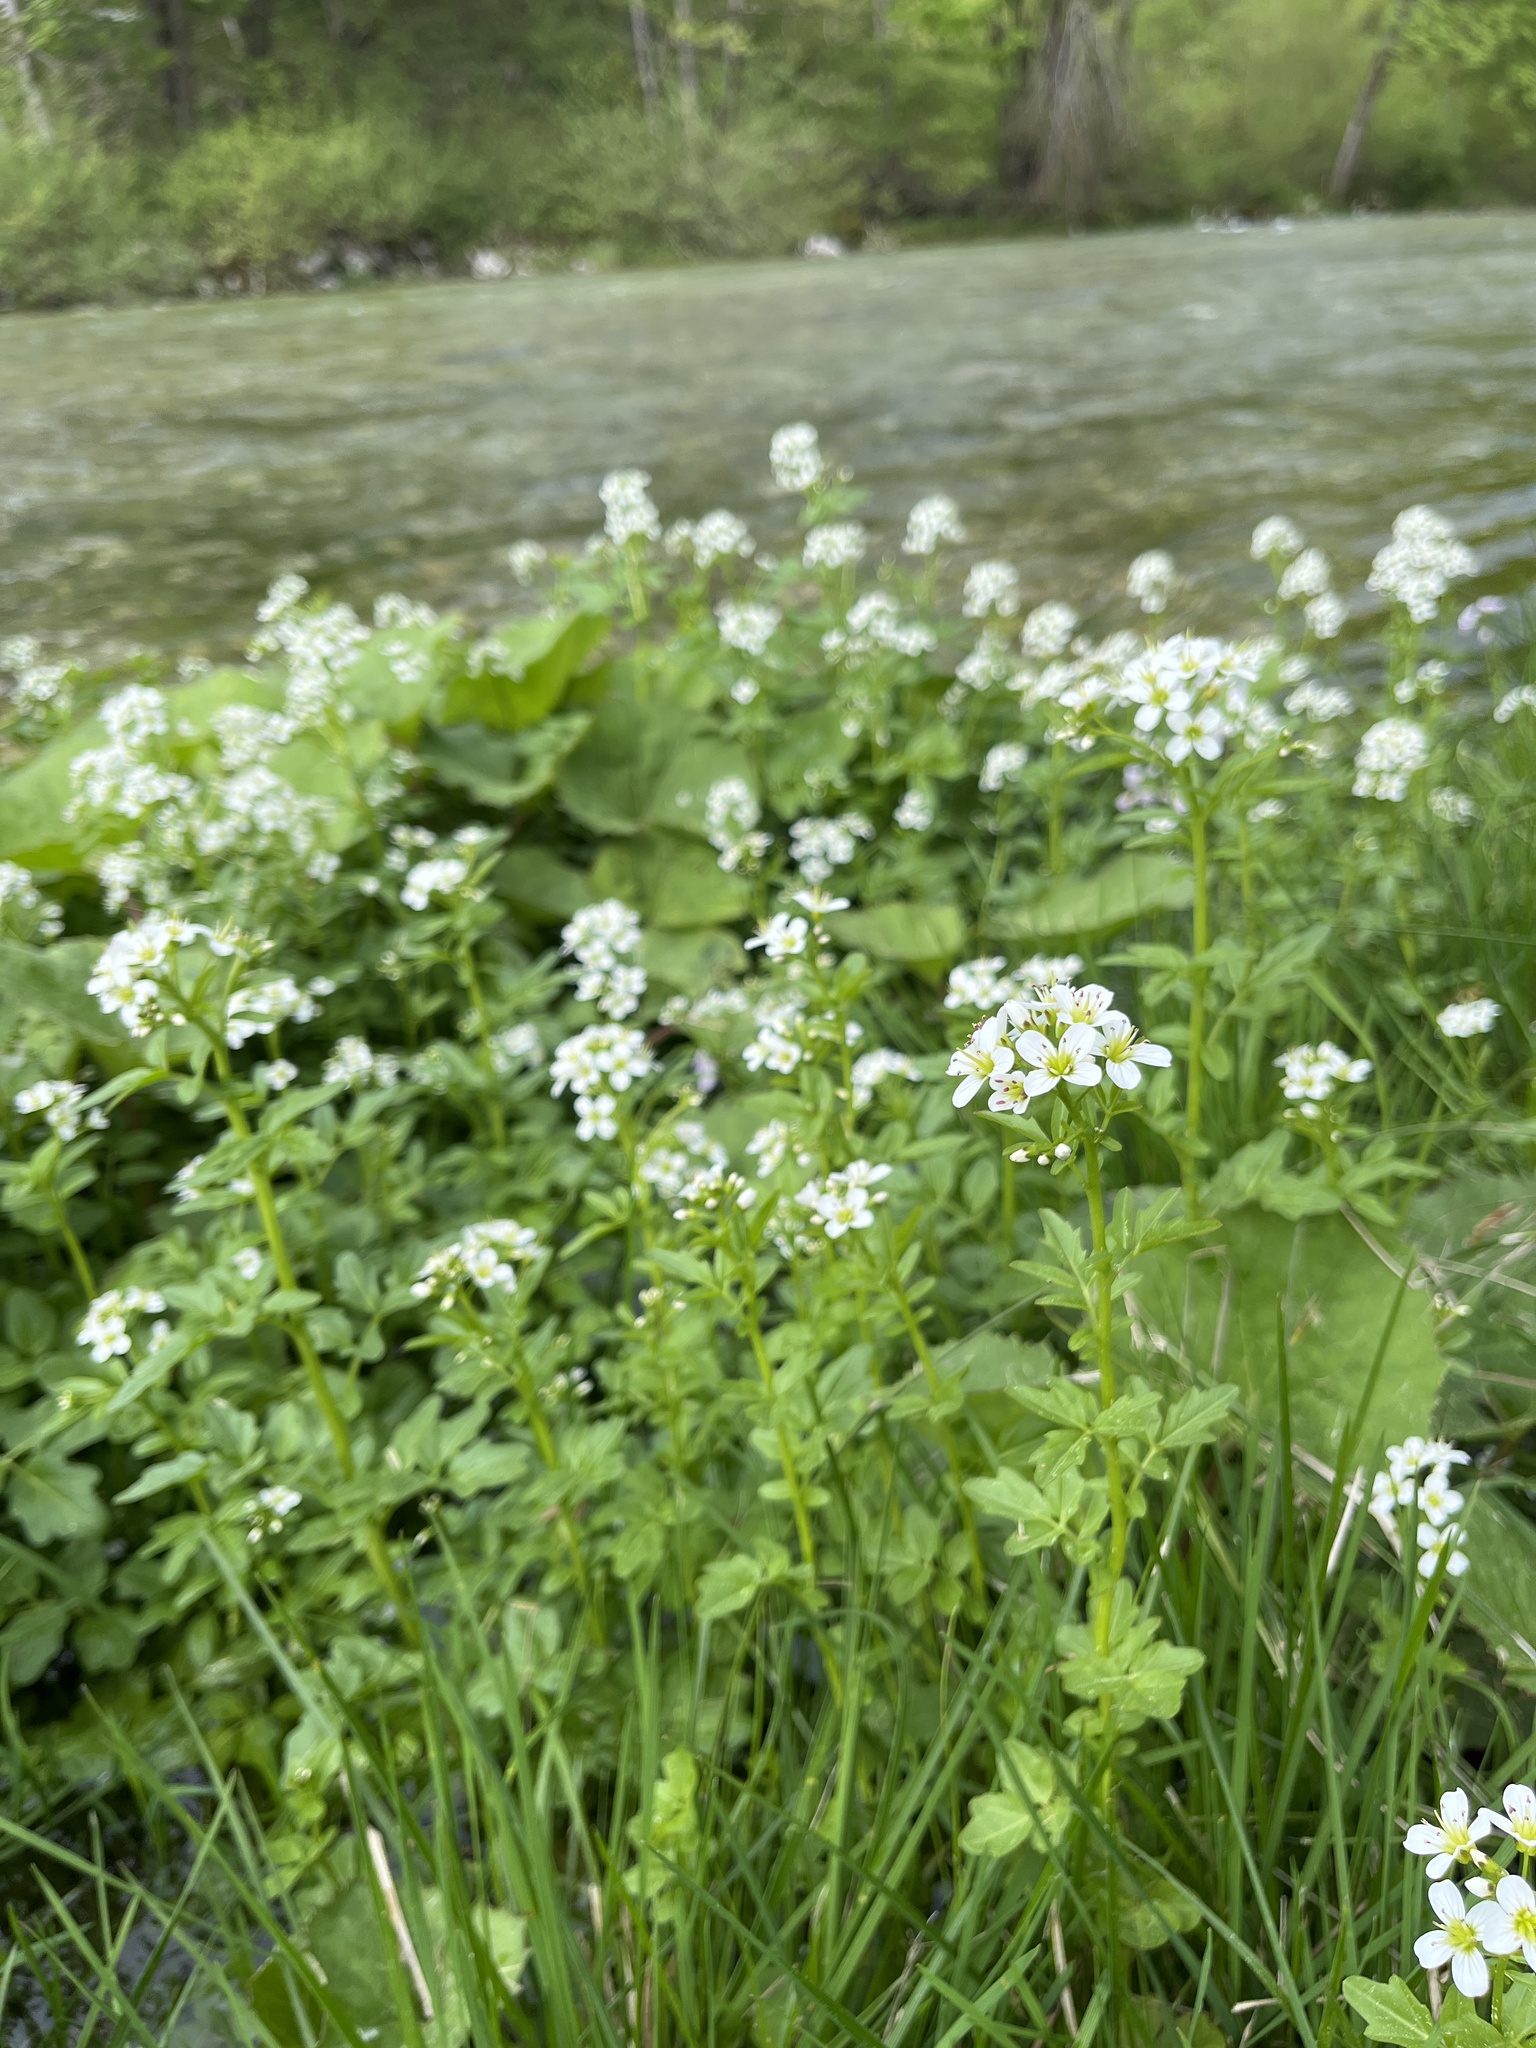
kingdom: Plantae
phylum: Tracheophyta
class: Magnoliopsida
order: Brassicales
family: Brassicaceae
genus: Cardamine
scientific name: Cardamine amara
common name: Large bitter-cress
